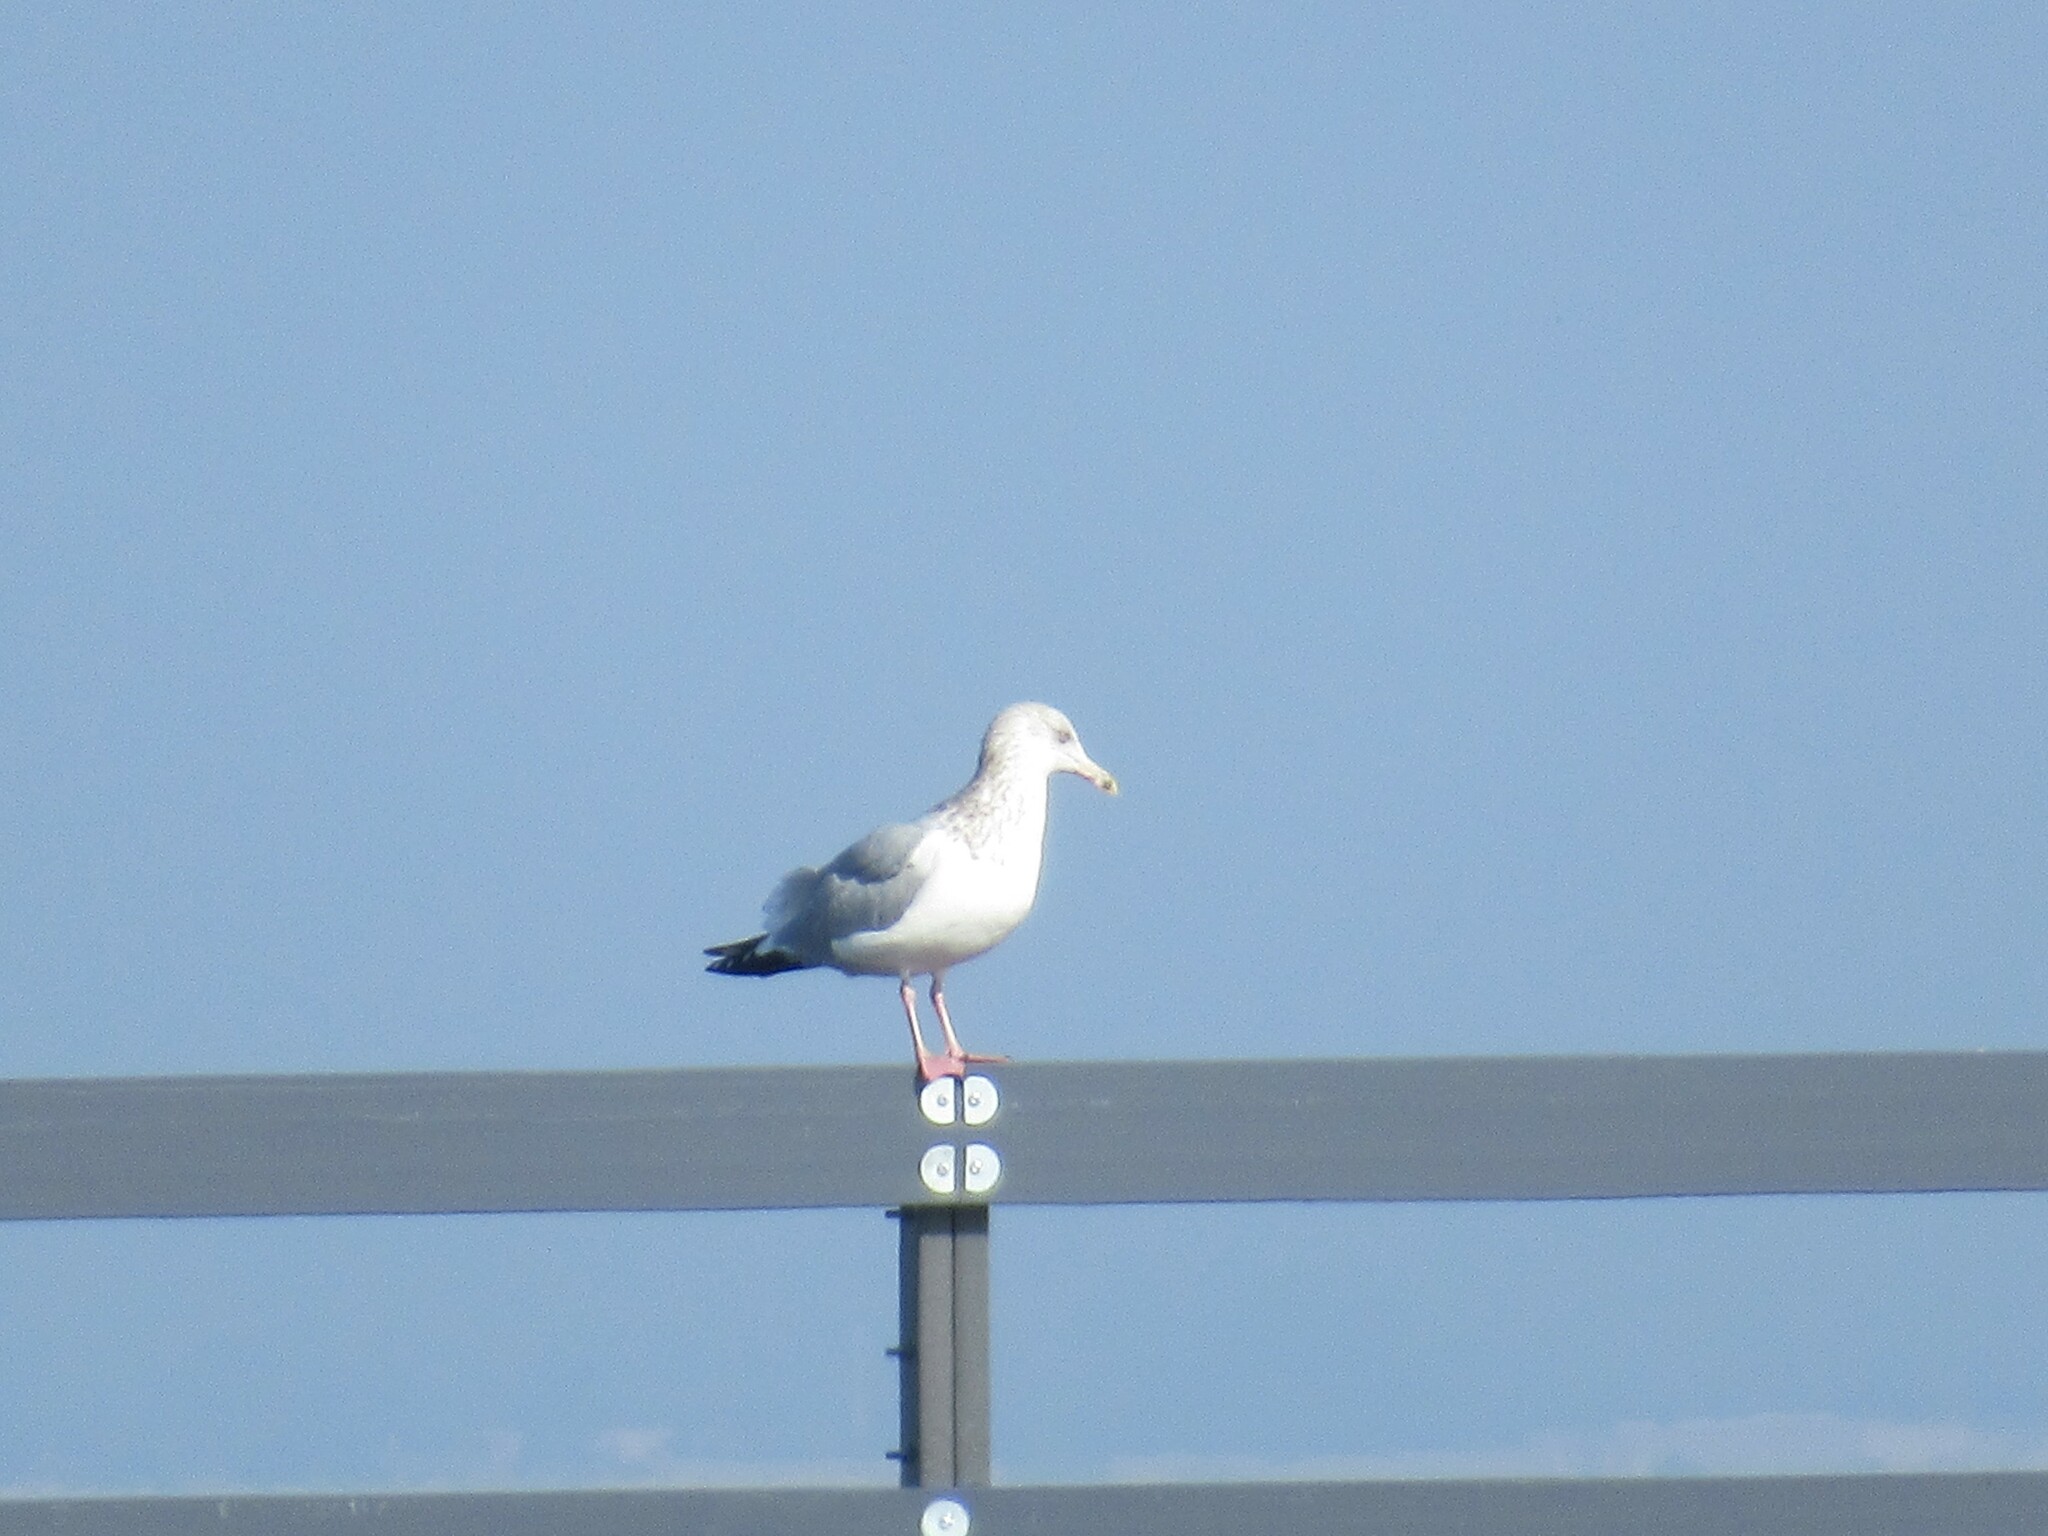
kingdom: Animalia
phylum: Chordata
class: Aves
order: Charadriiformes
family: Laridae
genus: Larus
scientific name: Larus argentatus
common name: Herring gull
